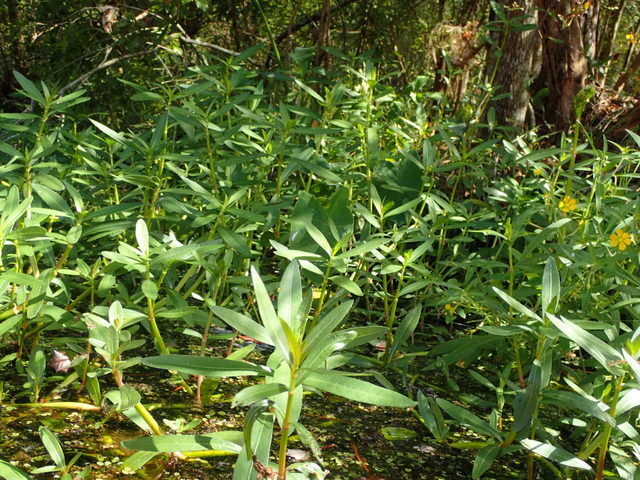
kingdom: Plantae
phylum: Tracheophyta
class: Magnoliopsida
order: Caryophyllales
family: Amaranthaceae
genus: Alternanthera
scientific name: Alternanthera philoxeroides
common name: Alligatorweed
